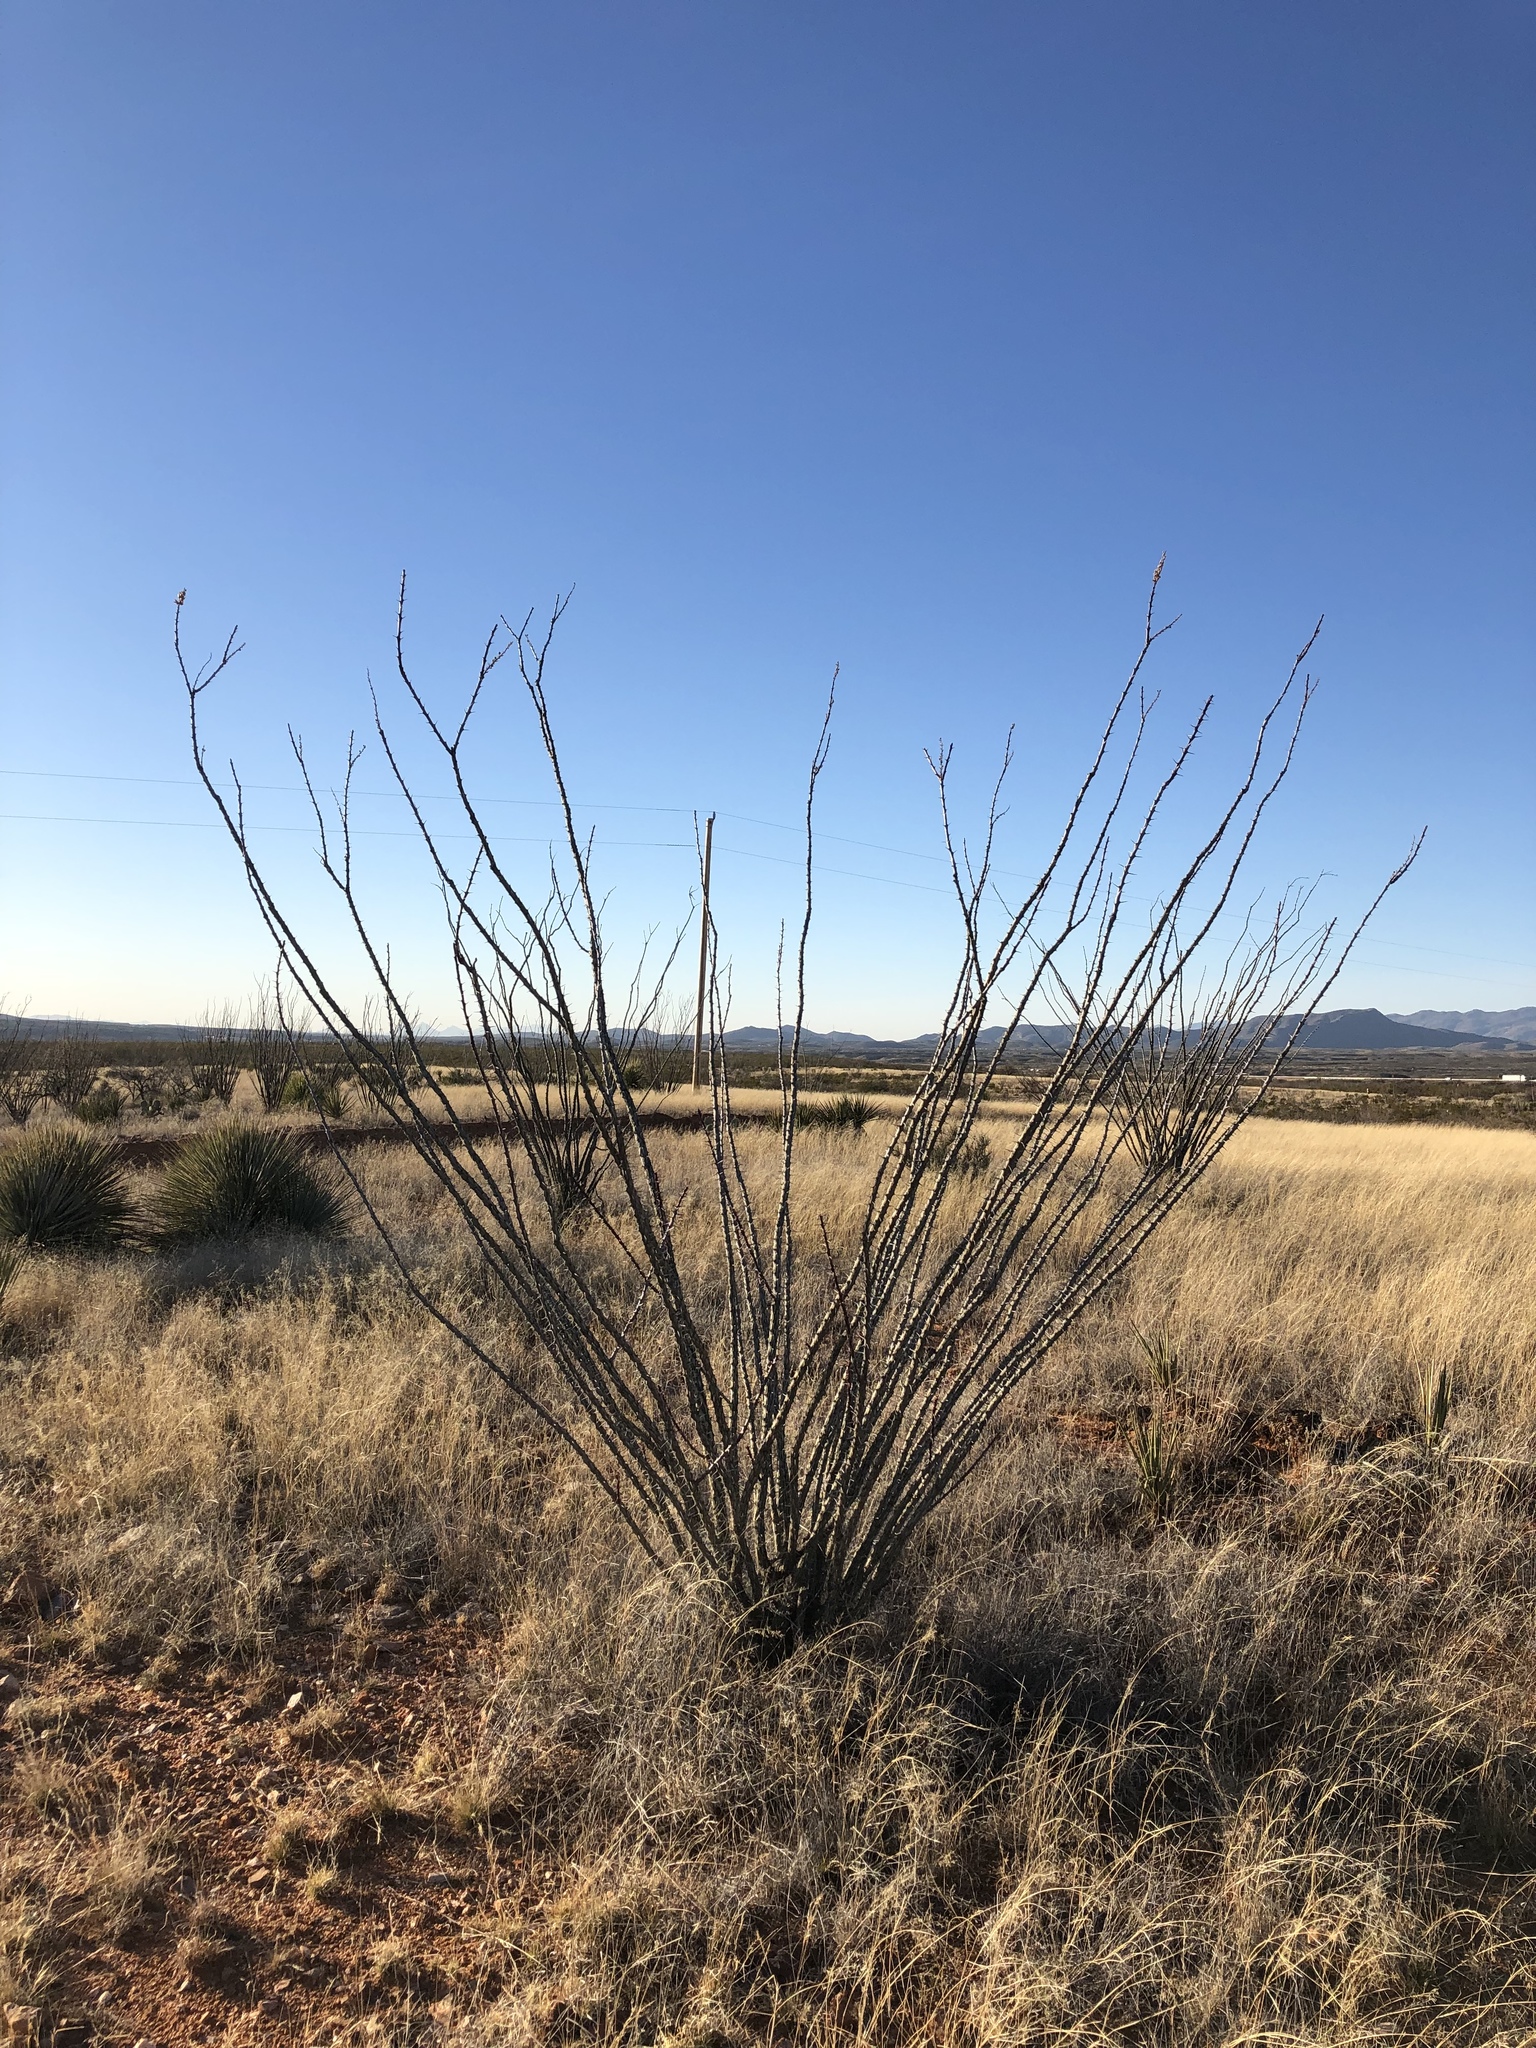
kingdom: Plantae
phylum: Tracheophyta
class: Magnoliopsida
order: Ericales
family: Fouquieriaceae
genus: Fouquieria
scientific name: Fouquieria splendens
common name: Vine-cactus
